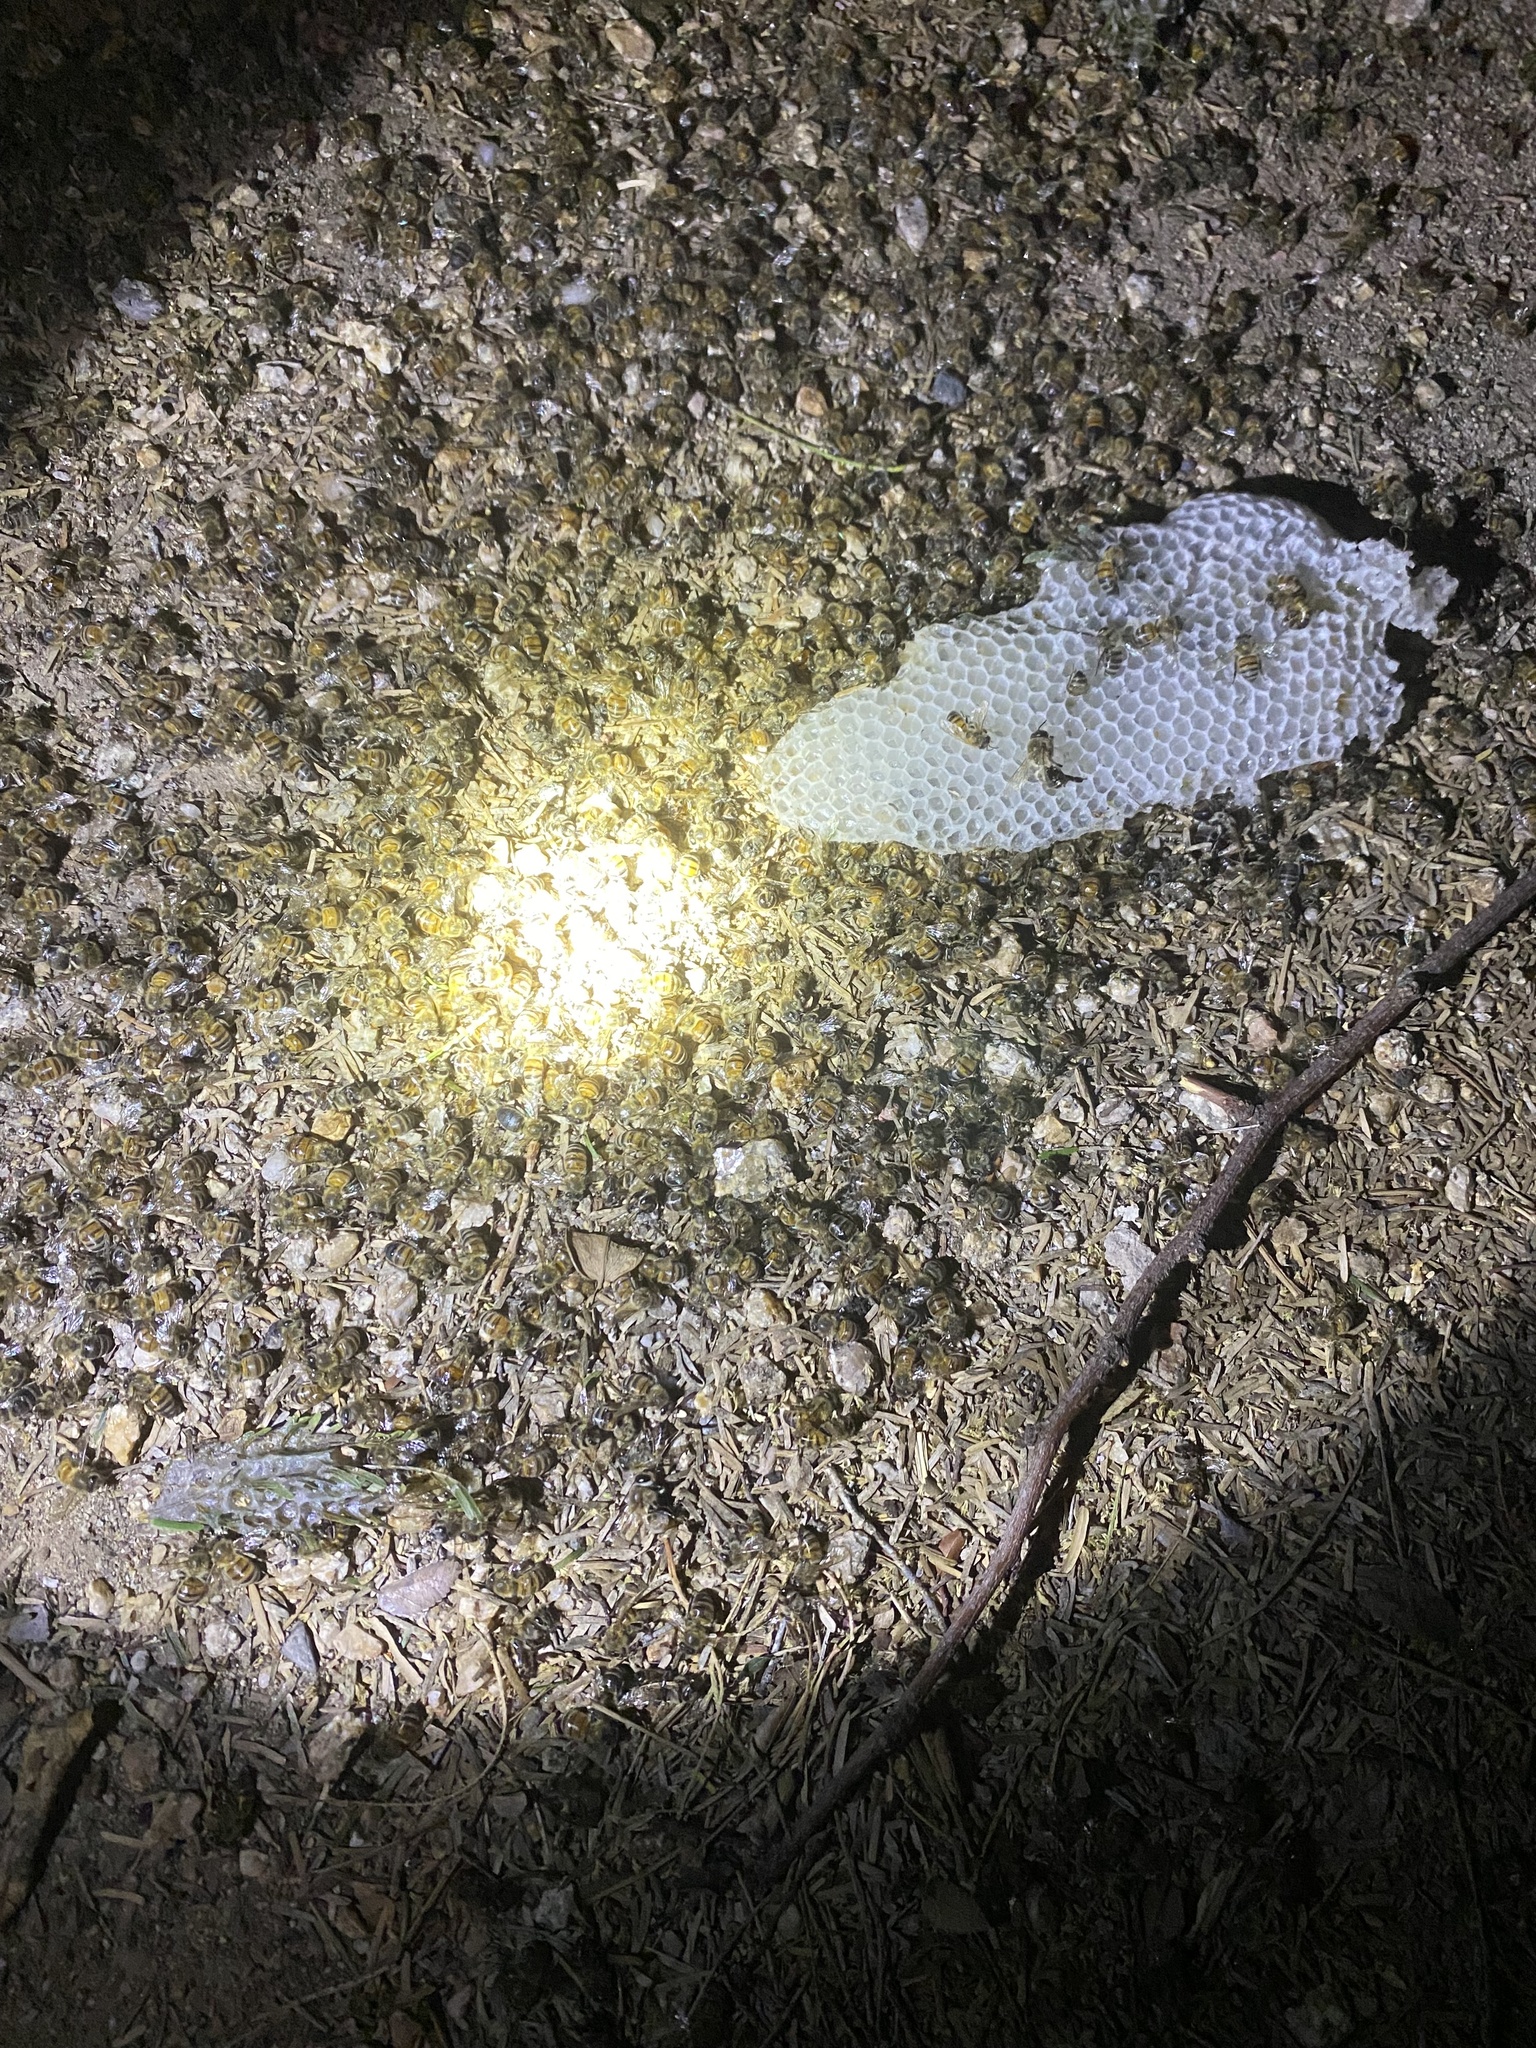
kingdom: Animalia
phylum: Arthropoda
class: Insecta
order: Hymenoptera
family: Apidae
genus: Apis
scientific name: Apis mellifera
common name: Honey bee
